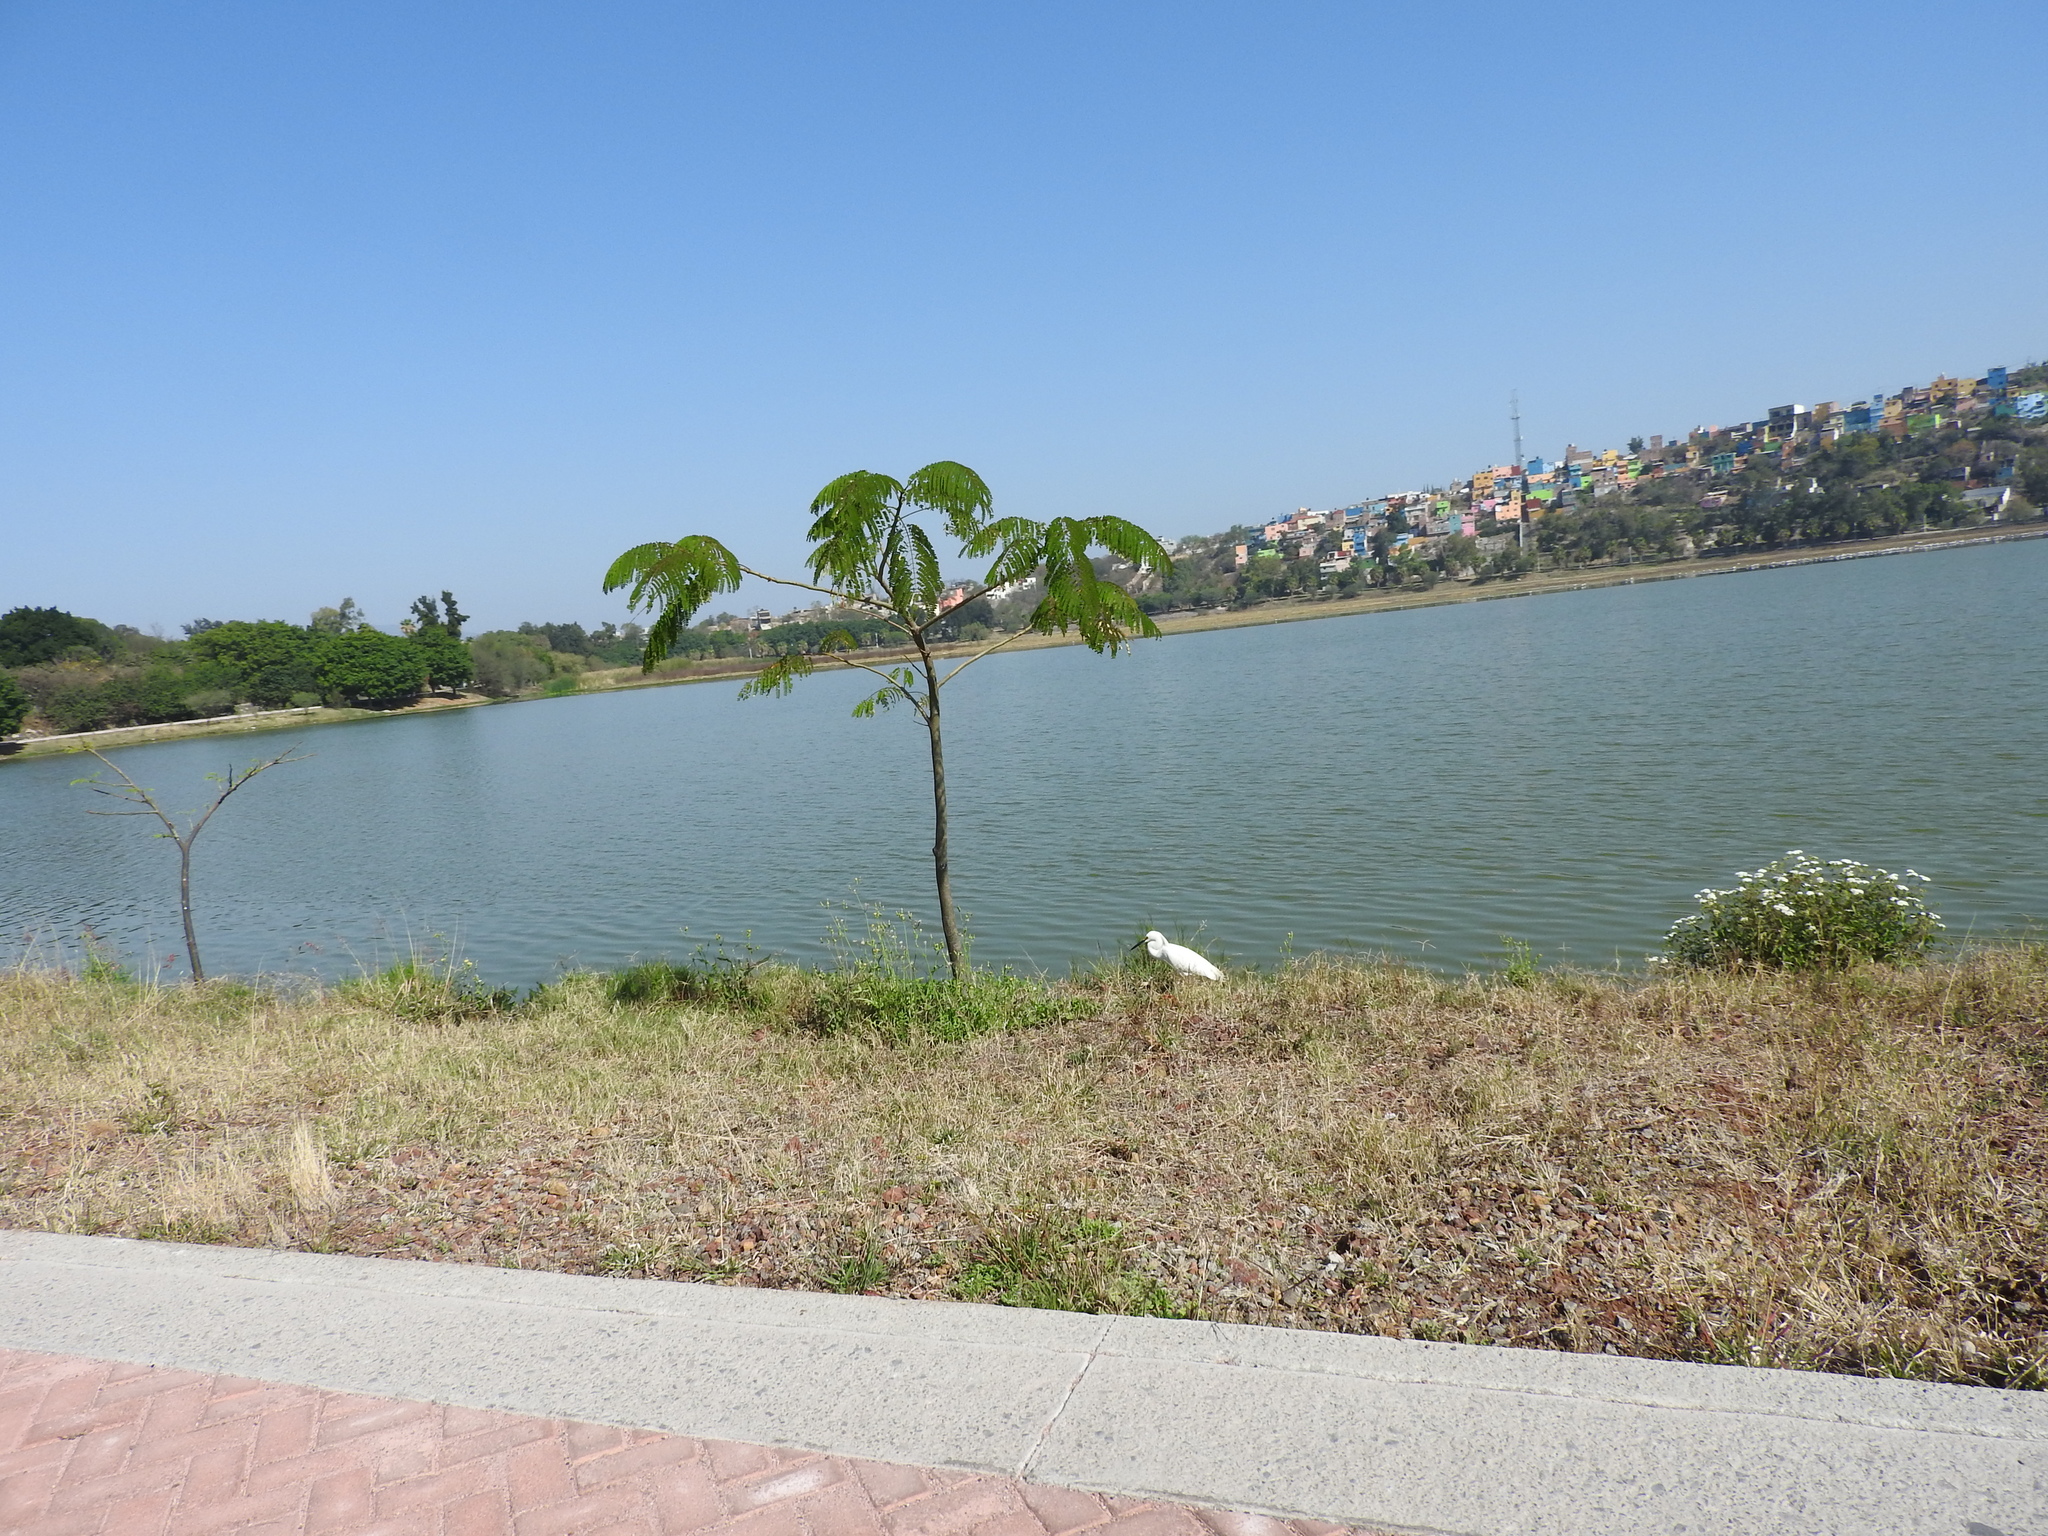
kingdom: Animalia
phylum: Chordata
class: Aves
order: Pelecaniformes
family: Ardeidae
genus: Egretta
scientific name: Egretta thula
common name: Snowy egret
